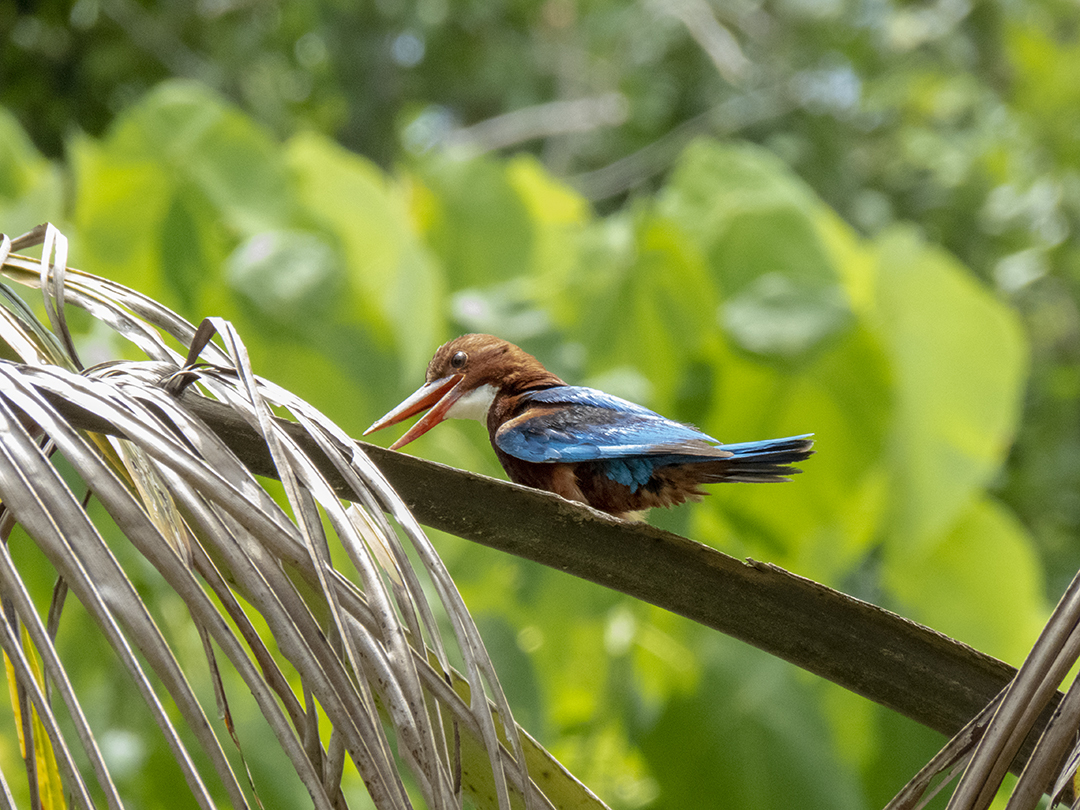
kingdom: Animalia
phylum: Chordata
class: Aves
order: Coraciiformes
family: Alcedinidae
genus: Halcyon
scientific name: Halcyon smyrnensis
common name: White-throated kingfisher
